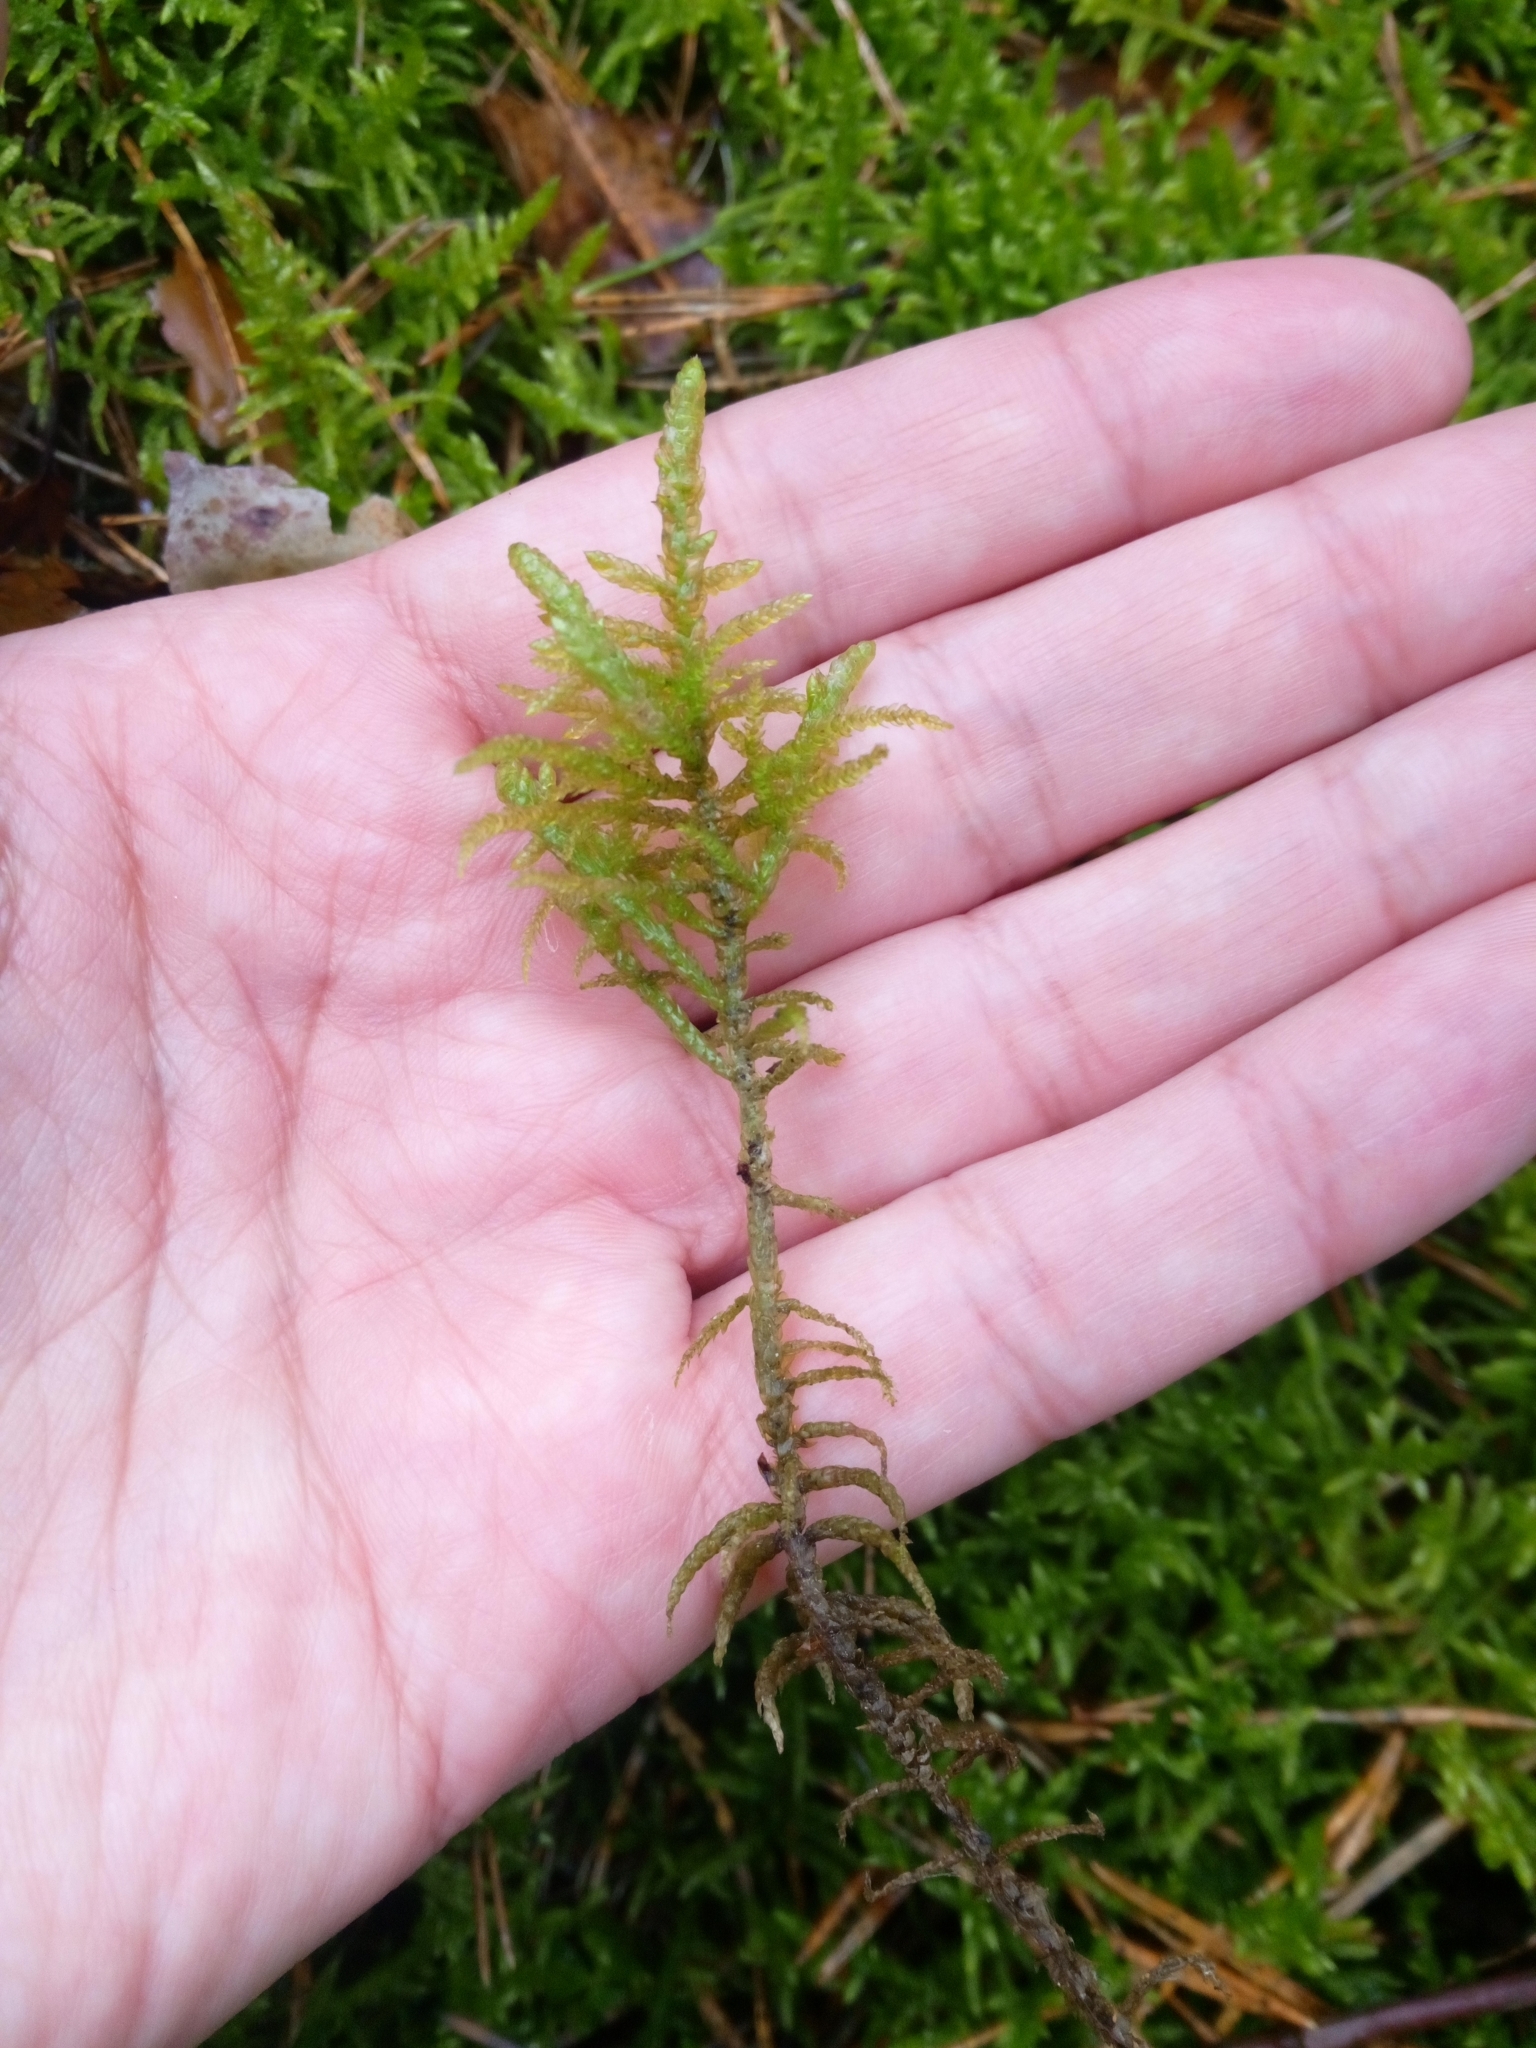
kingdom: Plantae
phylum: Bryophyta
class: Bryopsida
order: Hypnales
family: Brachytheciaceae
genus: Pseudoscleropodium
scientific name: Pseudoscleropodium purum
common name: Neat feather-moss
